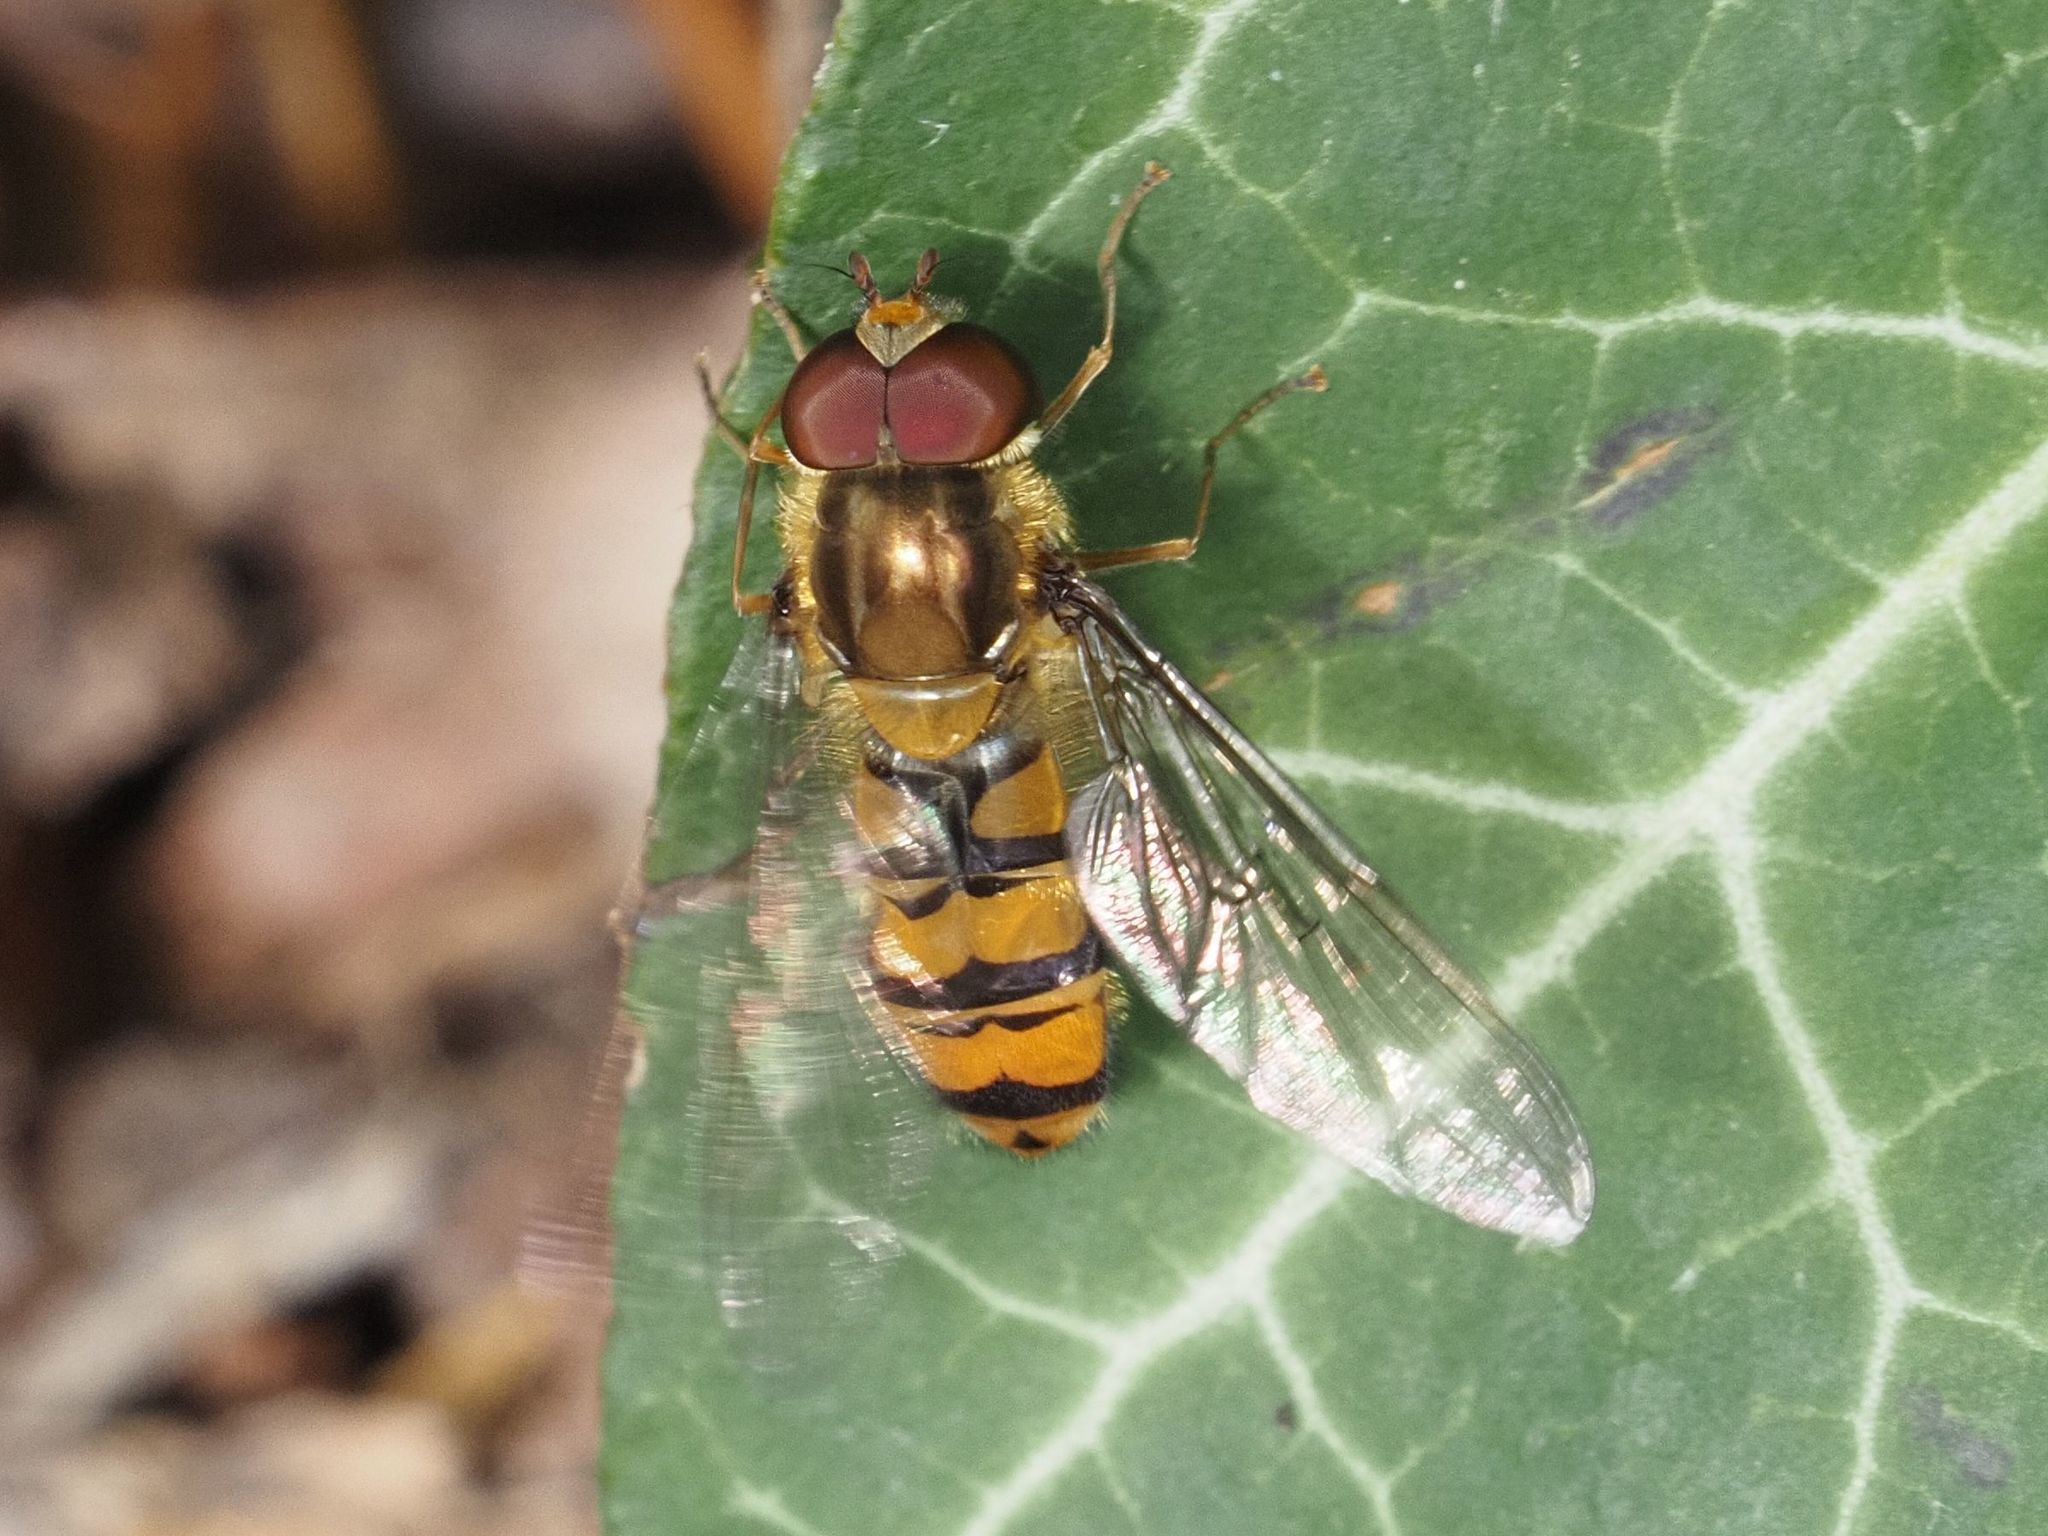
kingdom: Animalia
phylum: Arthropoda
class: Insecta
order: Diptera
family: Syrphidae
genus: Episyrphus
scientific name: Episyrphus balteatus
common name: Marmalade hoverfly
